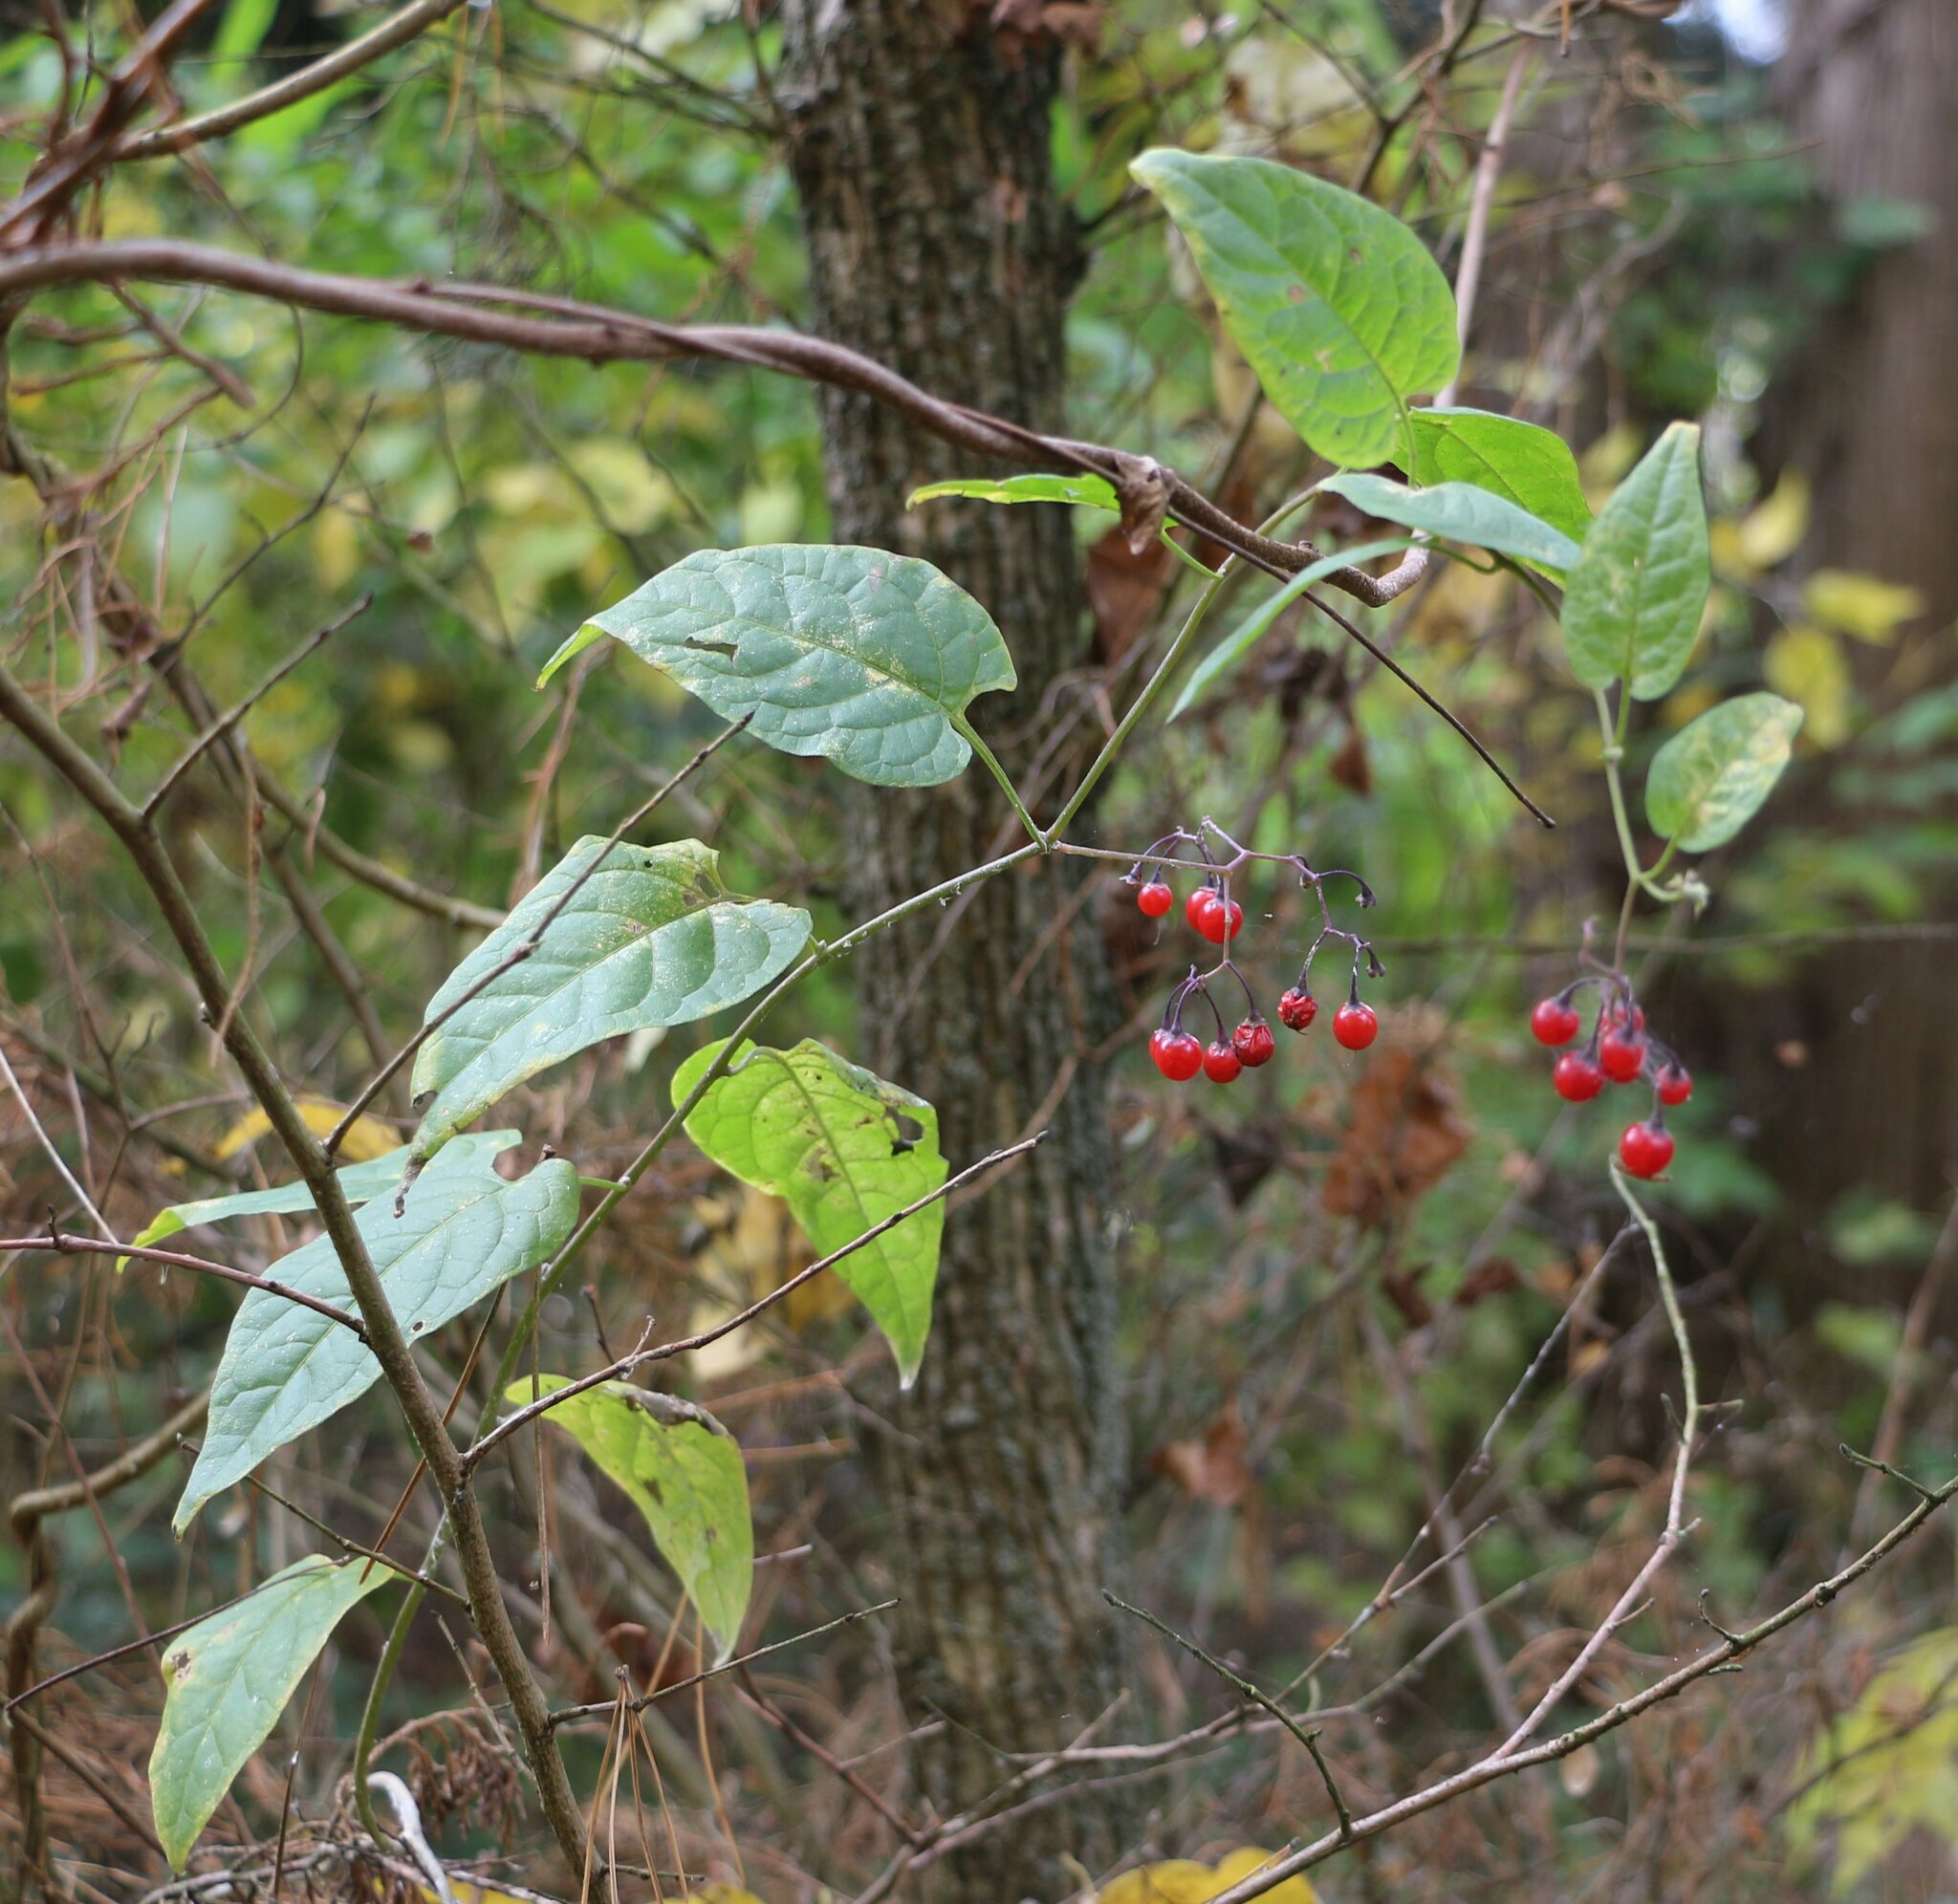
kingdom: Plantae
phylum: Tracheophyta
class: Magnoliopsida
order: Solanales
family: Solanaceae
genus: Solanum
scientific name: Solanum dulcamara
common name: Climbing nightshade
